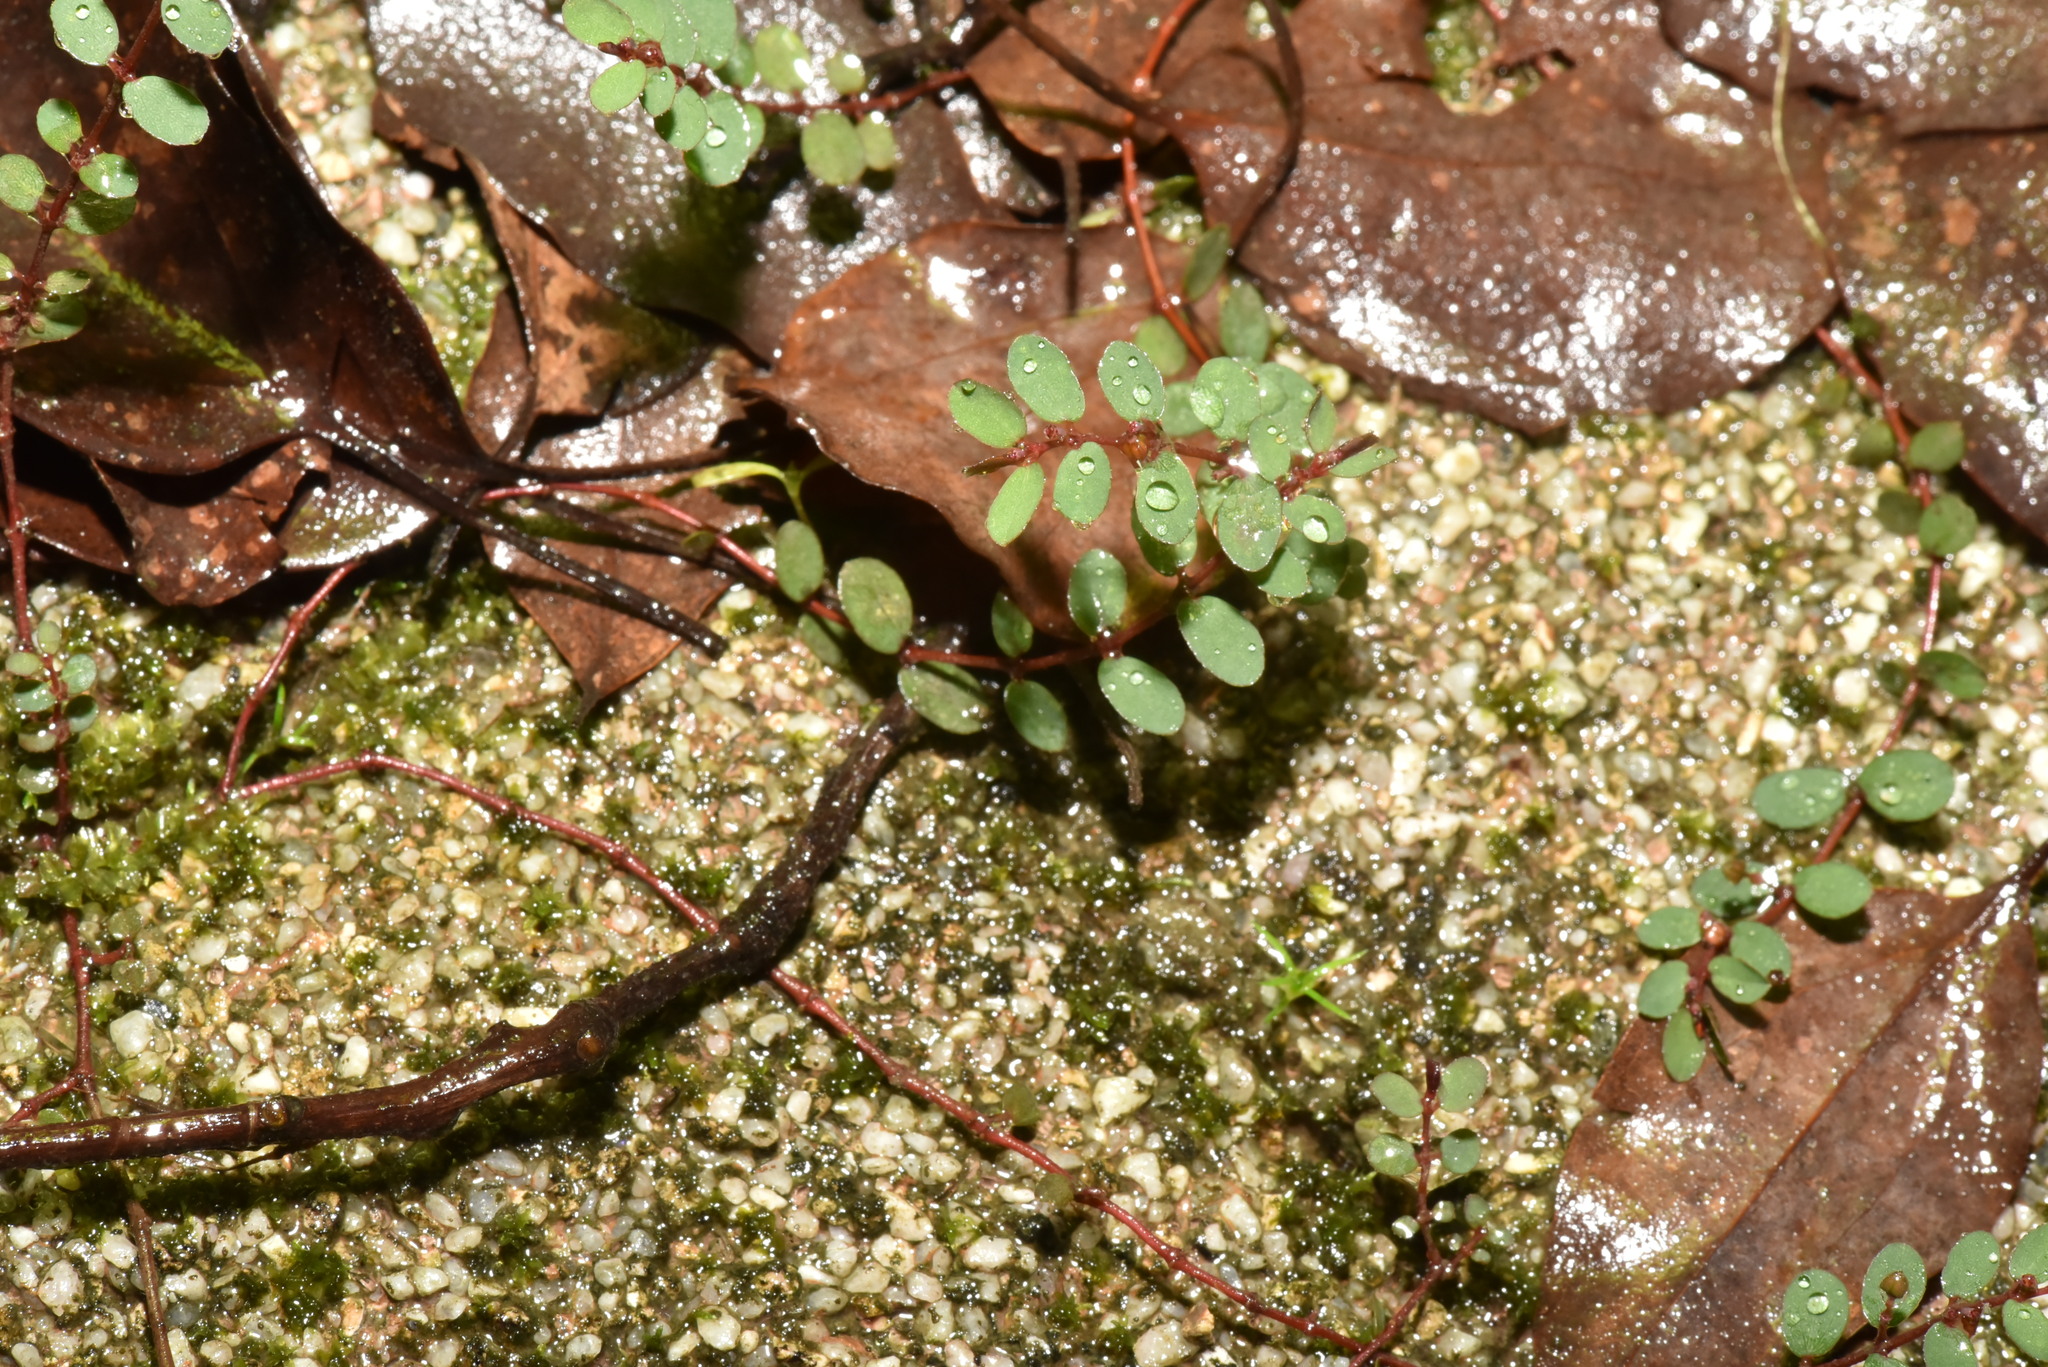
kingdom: Plantae
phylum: Tracheophyta
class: Magnoliopsida
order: Malpighiales
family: Euphorbiaceae
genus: Euphorbia
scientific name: Euphorbia prostrata
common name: Prostrate sandmat
